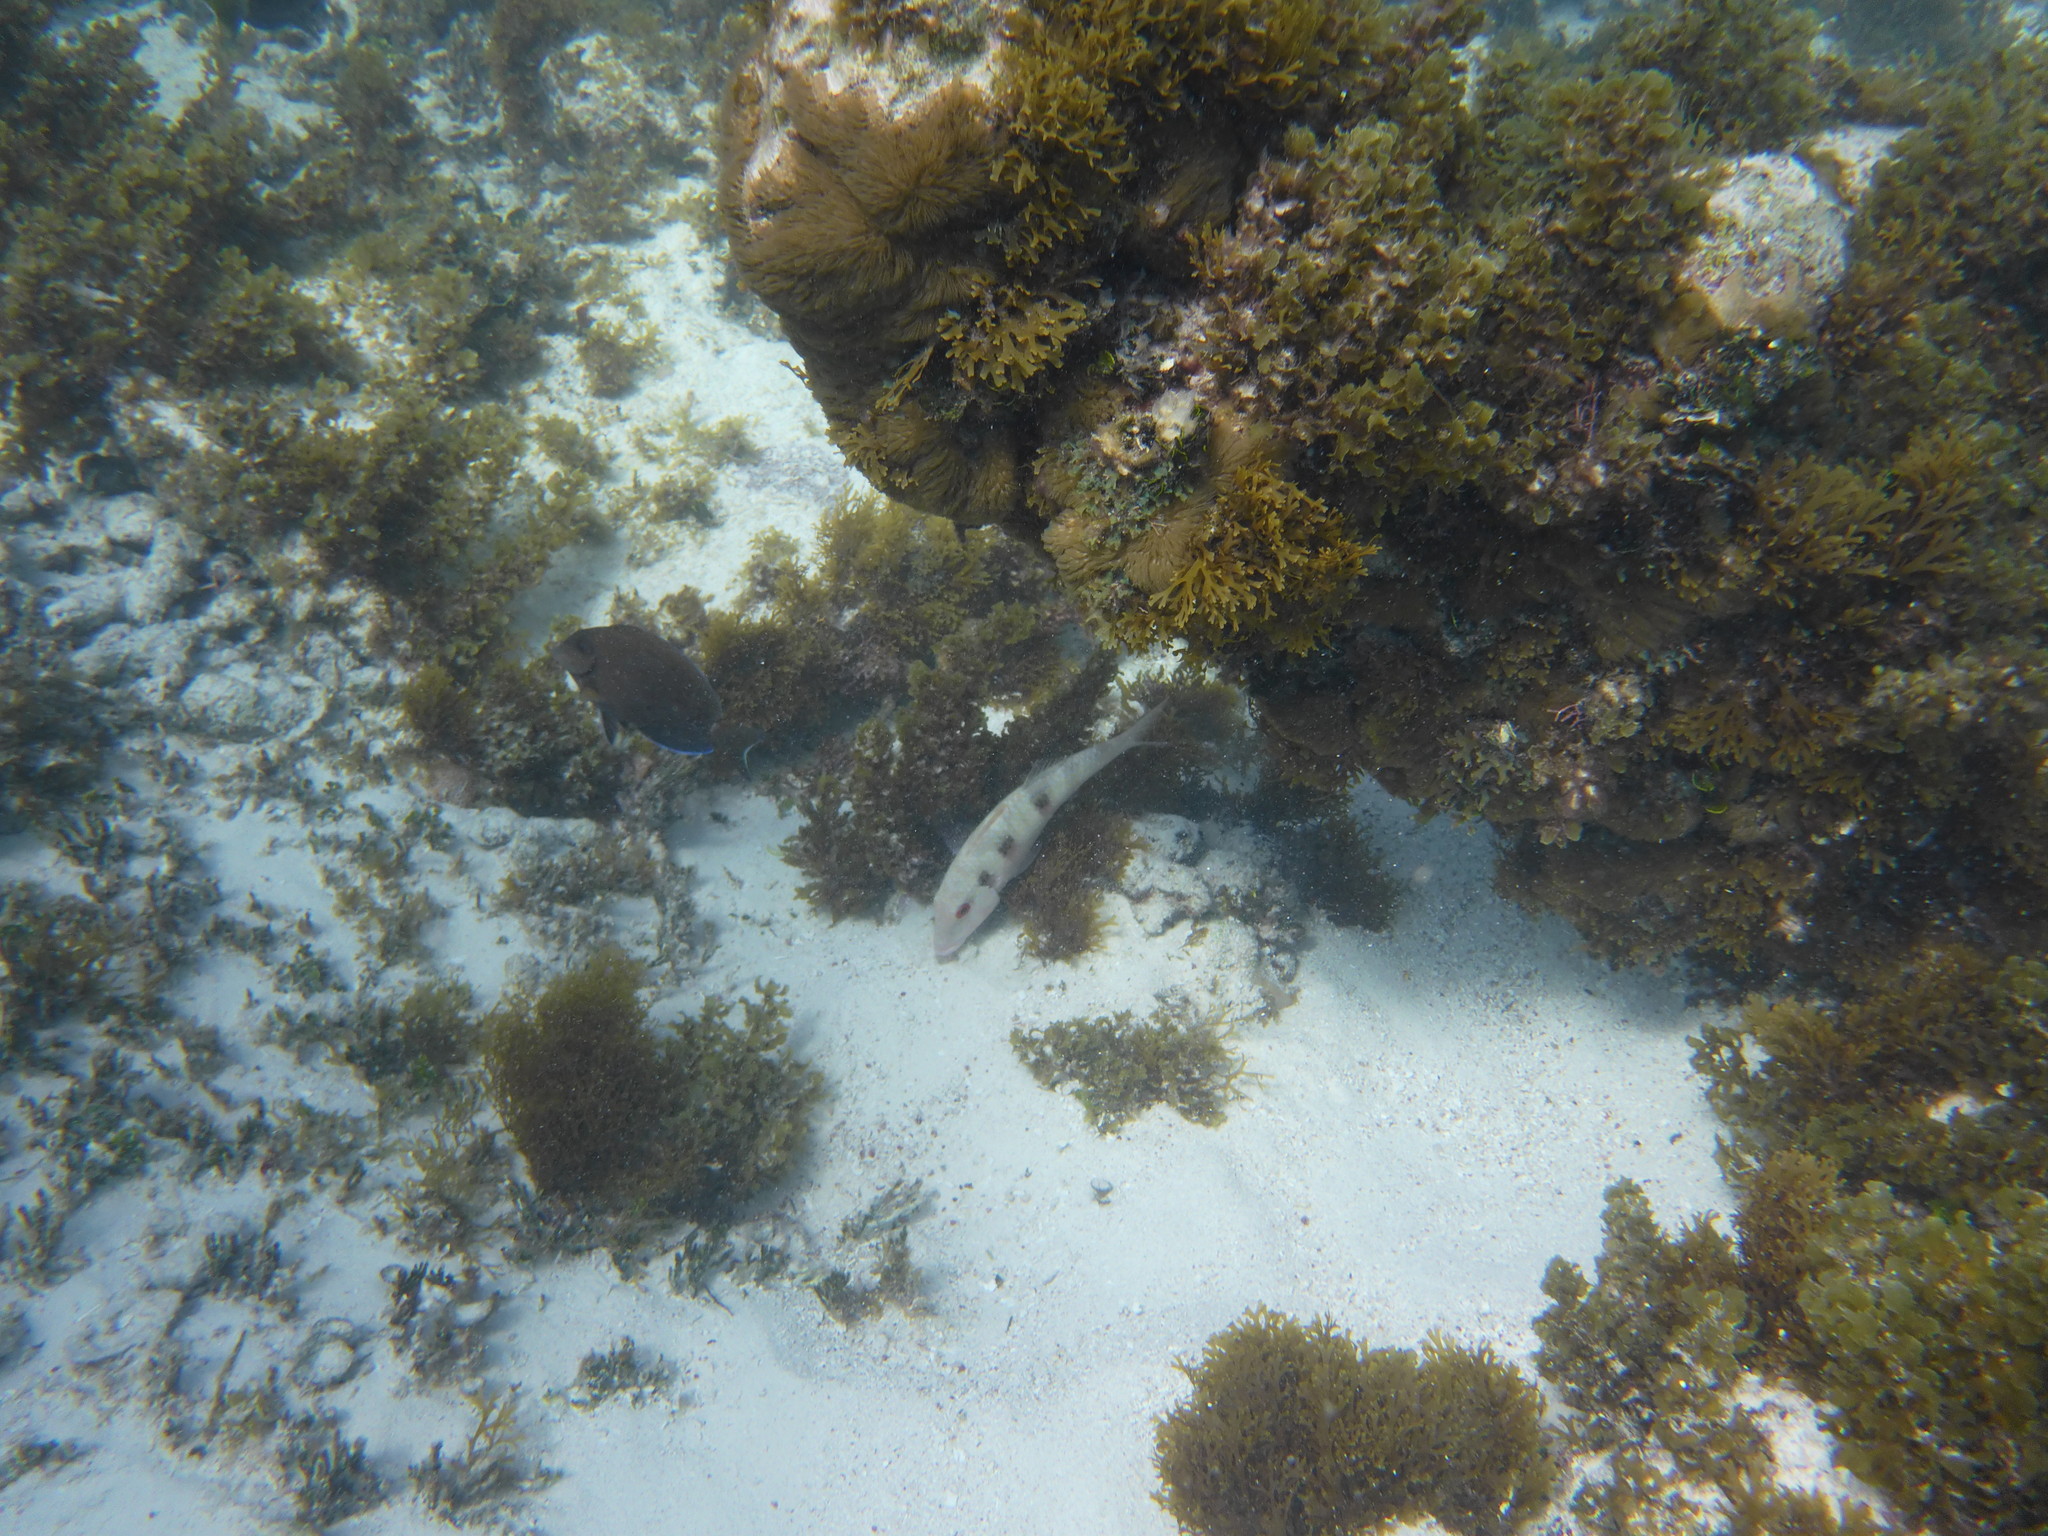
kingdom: Animalia
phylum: Chordata
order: Perciformes
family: Mullidae
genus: Pseudupeneus
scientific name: Pseudupeneus maculatus
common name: Spotted goatfish
